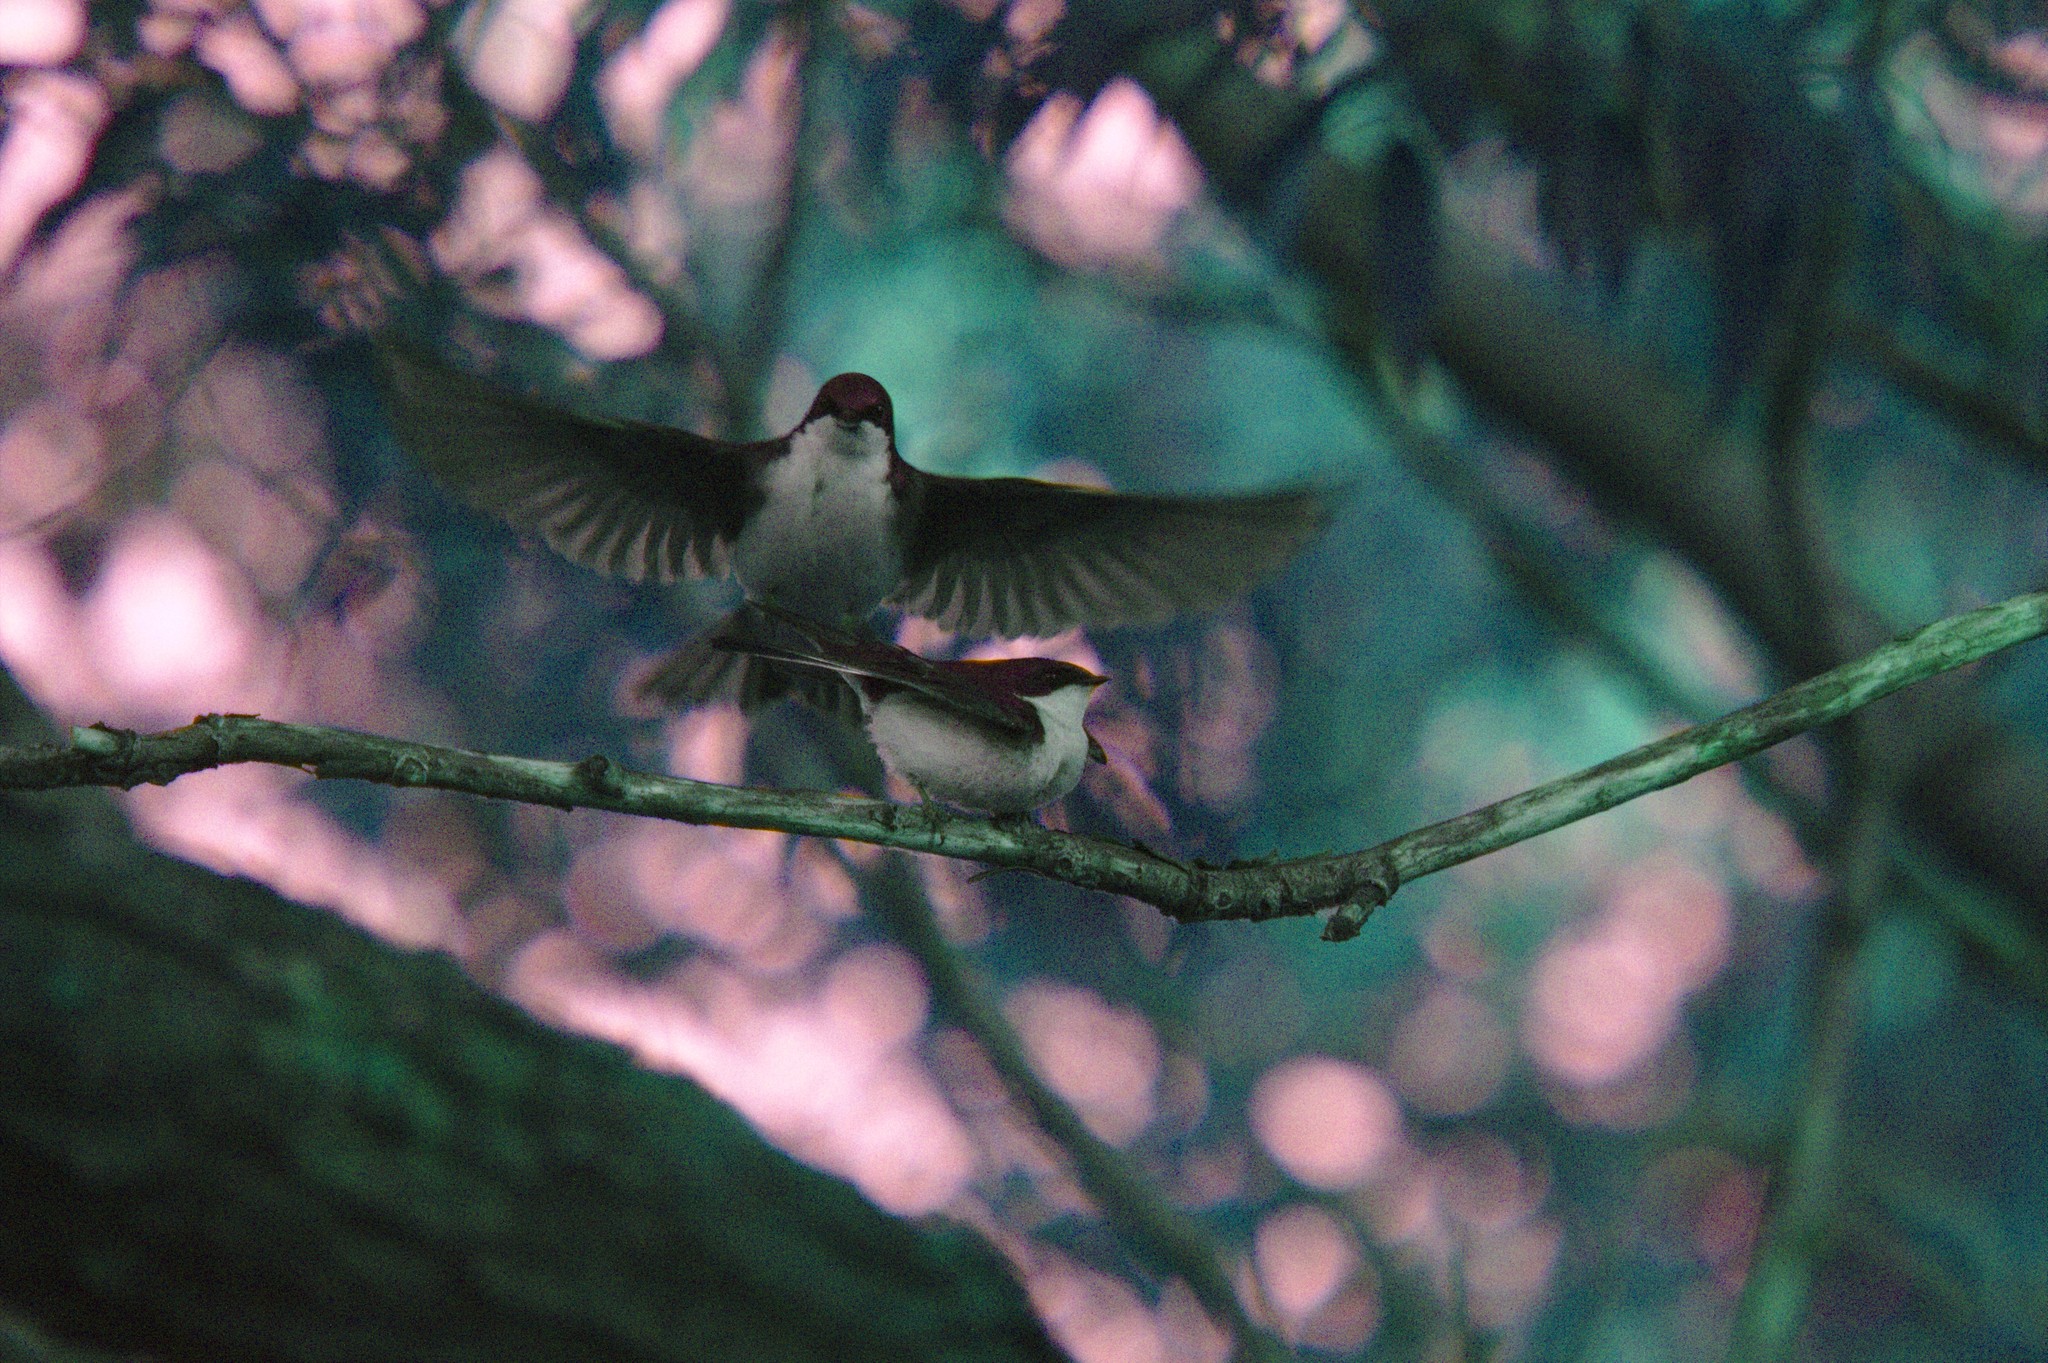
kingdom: Animalia
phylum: Chordata
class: Aves
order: Passeriformes
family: Hirundinidae
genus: Tachycineta
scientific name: Tachycineta bicolor
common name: Tree swallow
